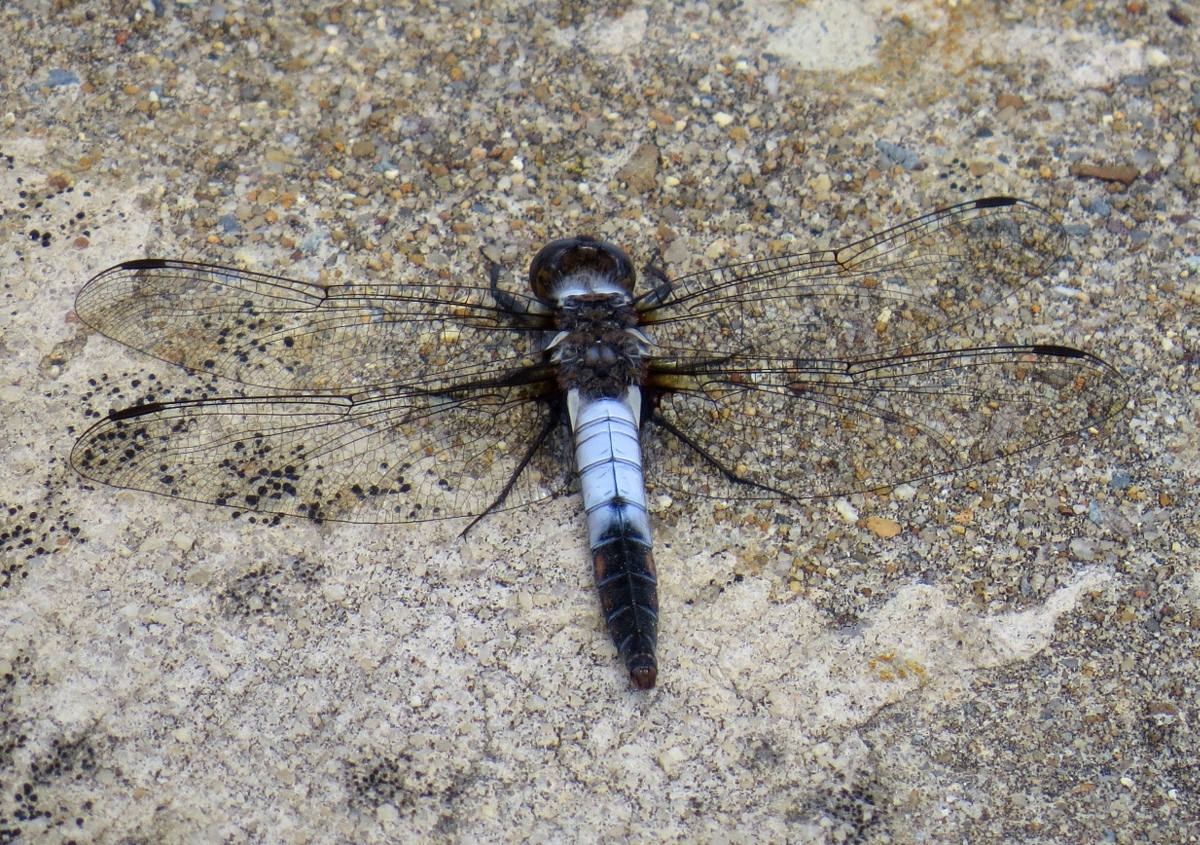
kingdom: Animalia
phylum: Arthropoda
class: Insecta
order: Odonata
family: Libellulidae
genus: Ladona
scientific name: Ladona julia
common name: Chalk-fronted corporal
